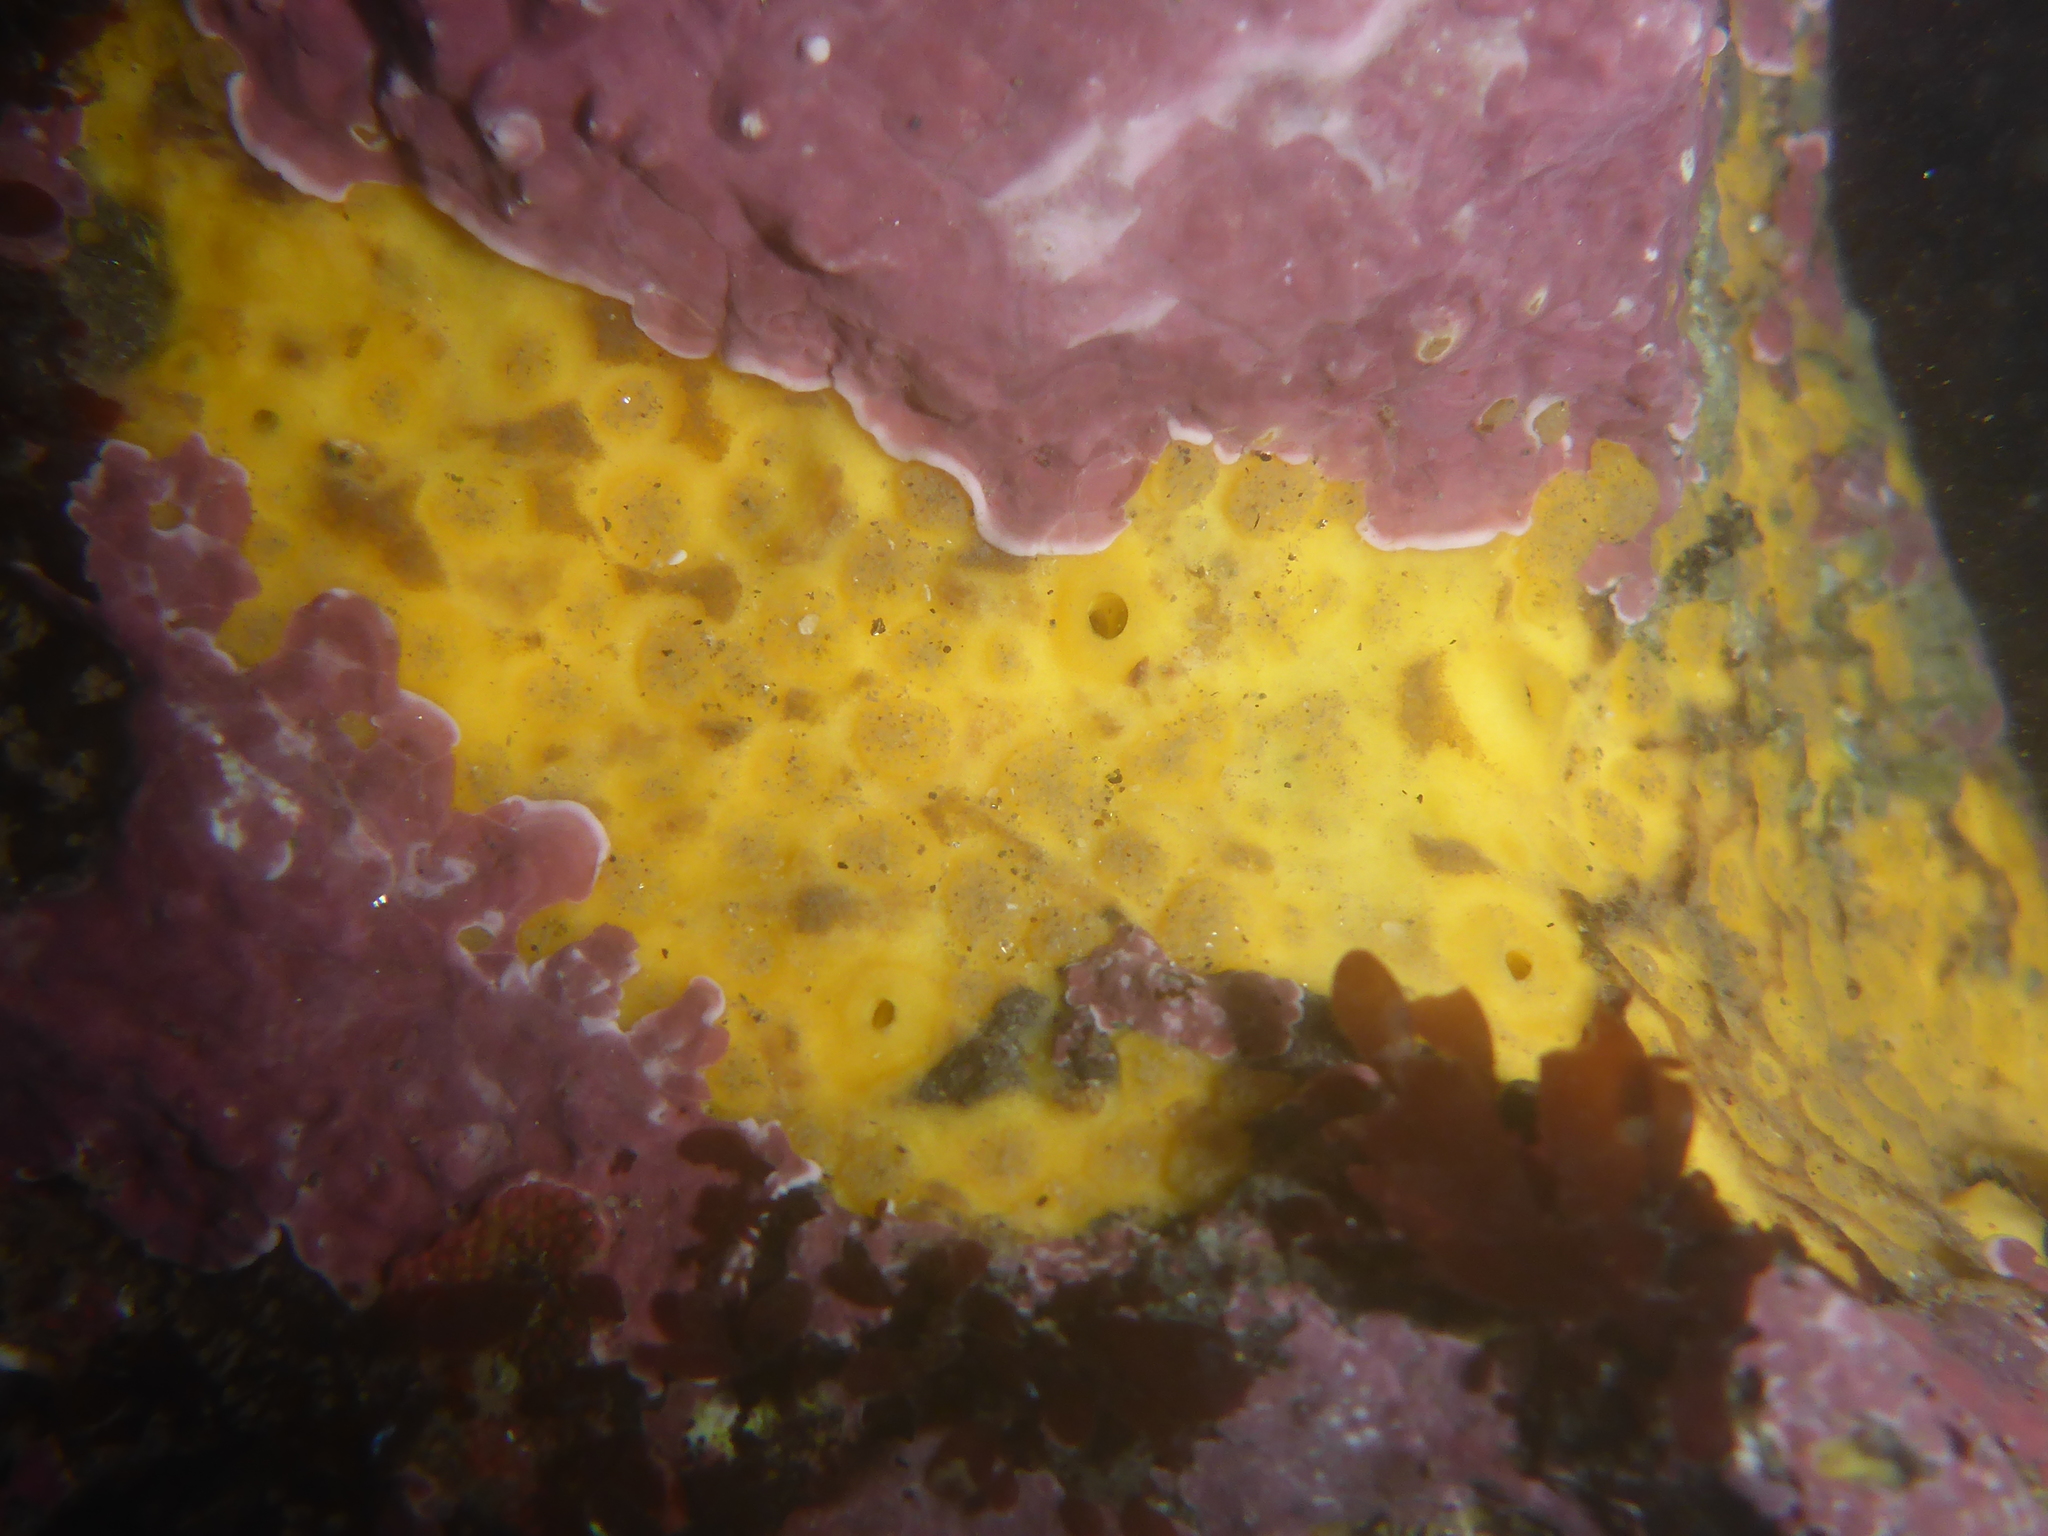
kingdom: Animalia
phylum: Porifera
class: Demospongiae
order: Clionaida
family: Clionaidae
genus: Cliona
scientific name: Cliona californiana
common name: California boring horny sponge
